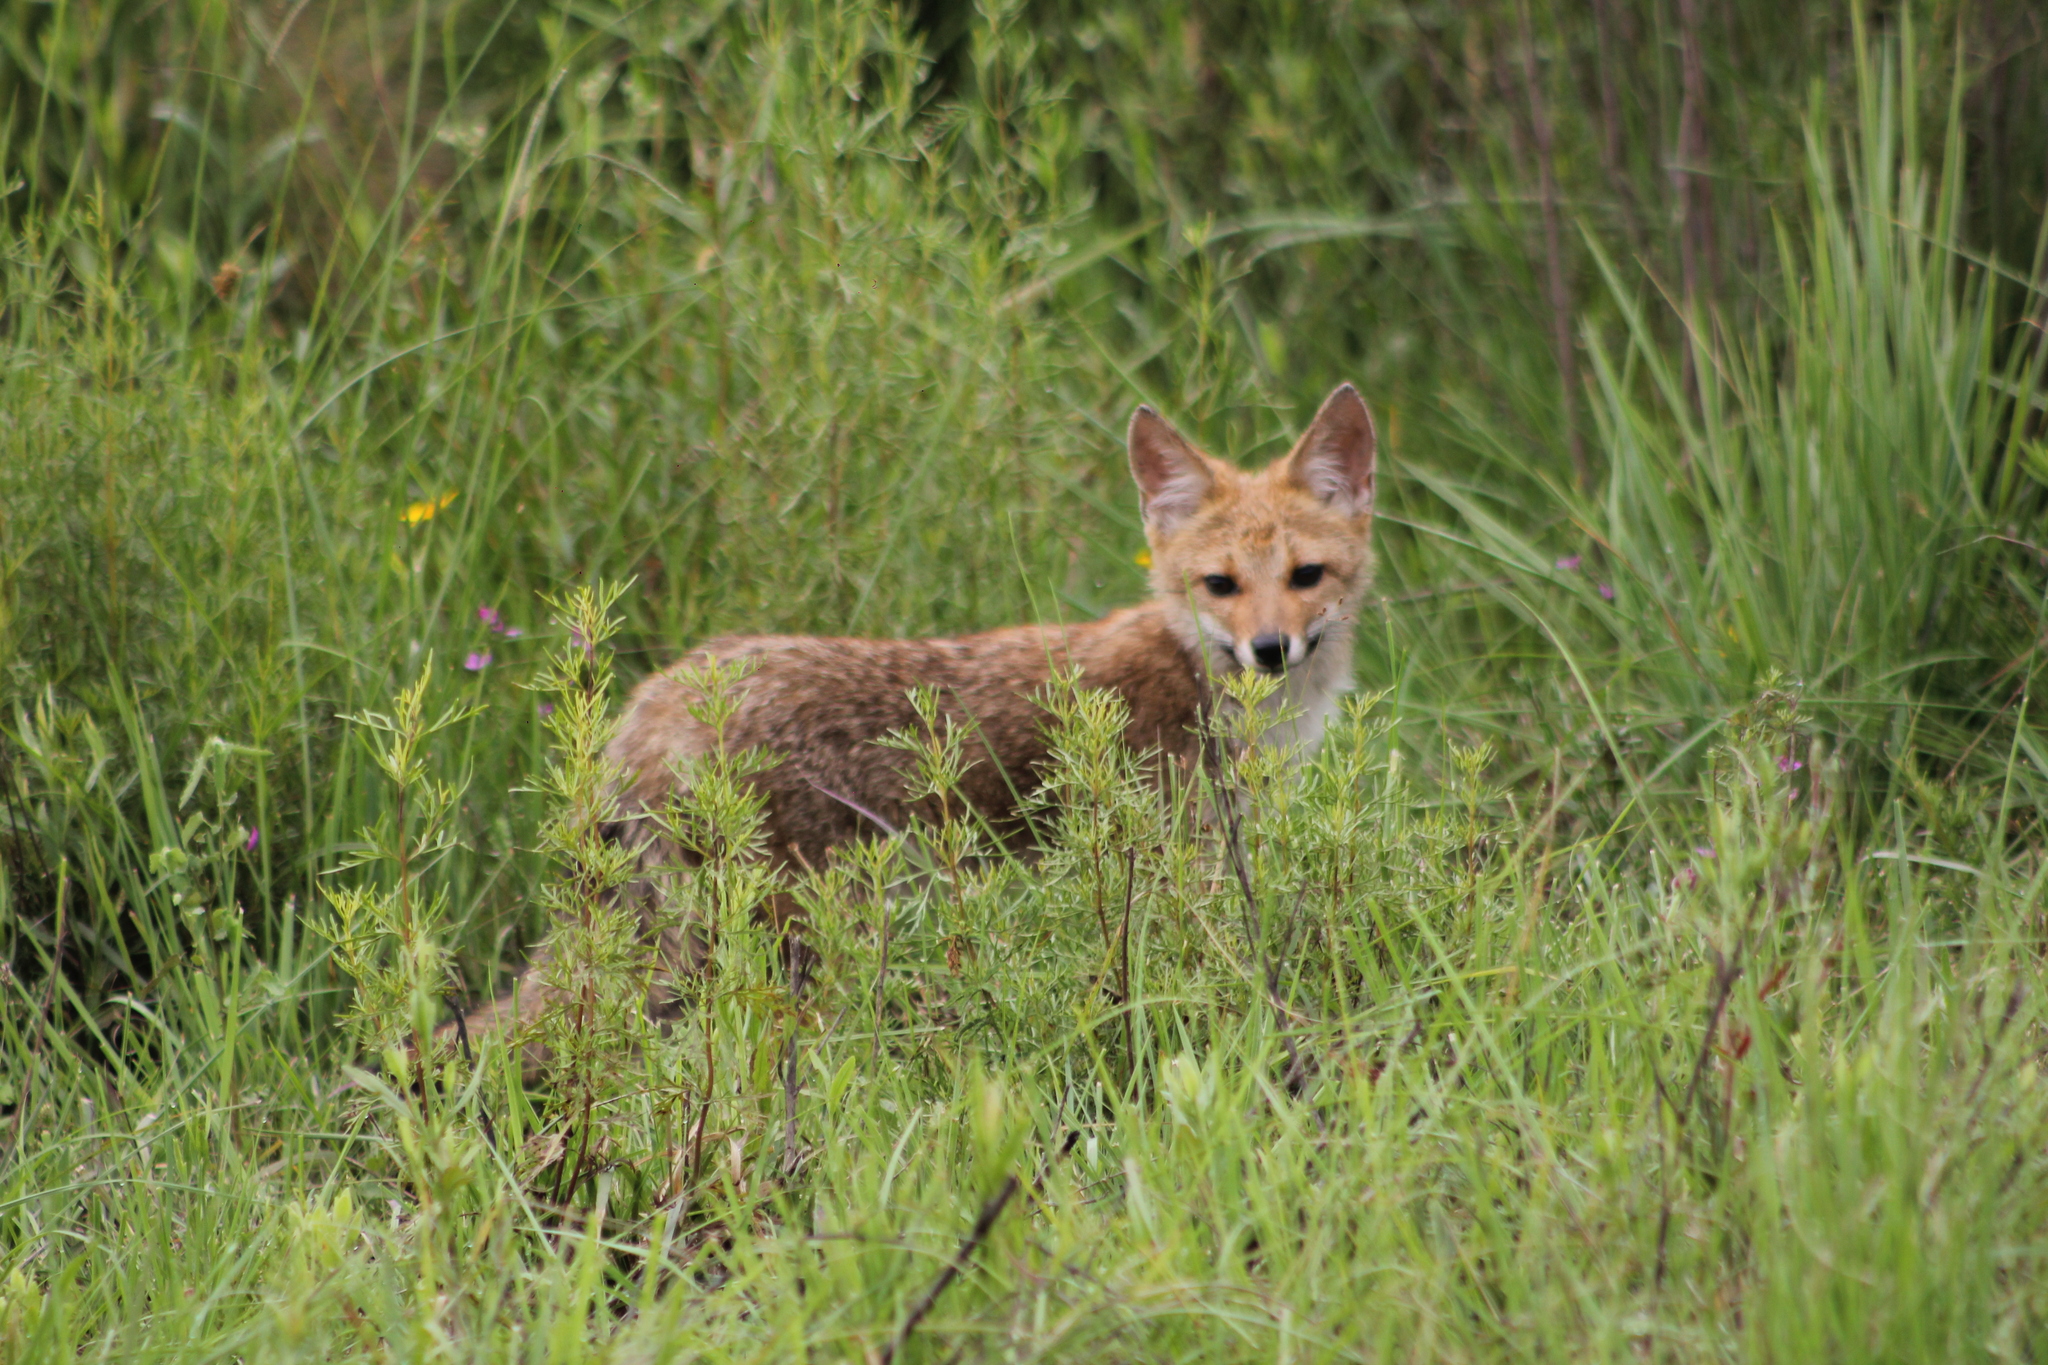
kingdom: Animalia
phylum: Chordata
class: Mammalia
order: Carnivora
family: Canidae
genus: Lycalopex
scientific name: Lycalopex gymnocercus
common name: Pampas fox
